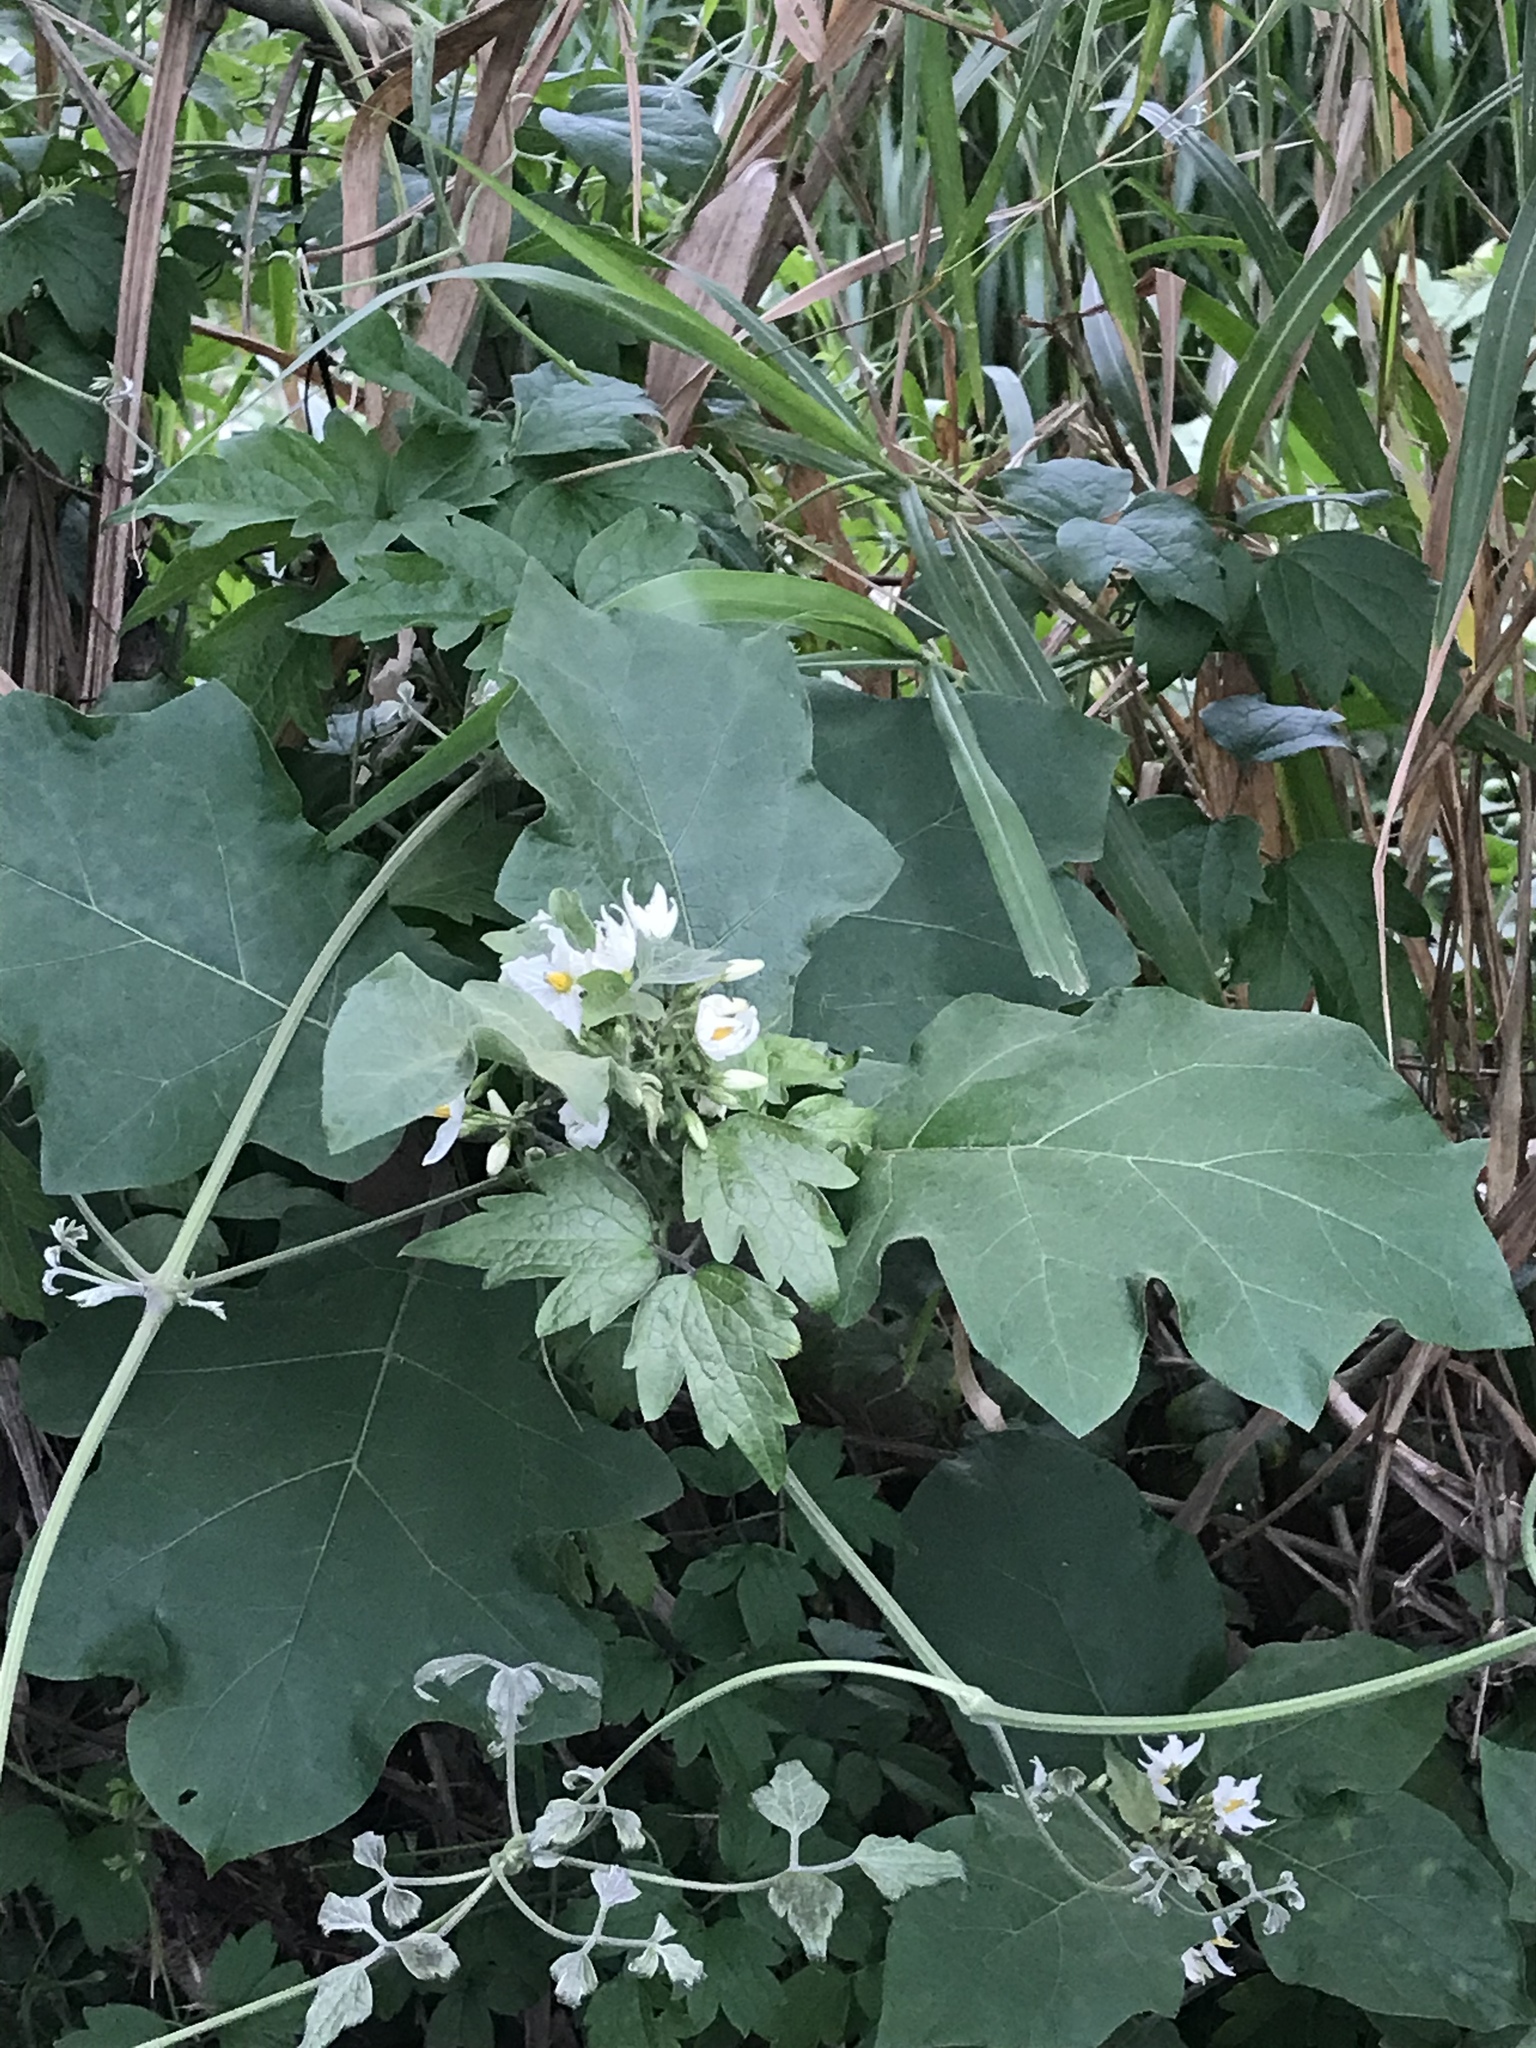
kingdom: Plantae
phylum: Tracheophyta
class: Magnoliopsida
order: Solanales
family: Solanaceae
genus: Solanum
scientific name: Solanum torvum
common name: Turkey berry
